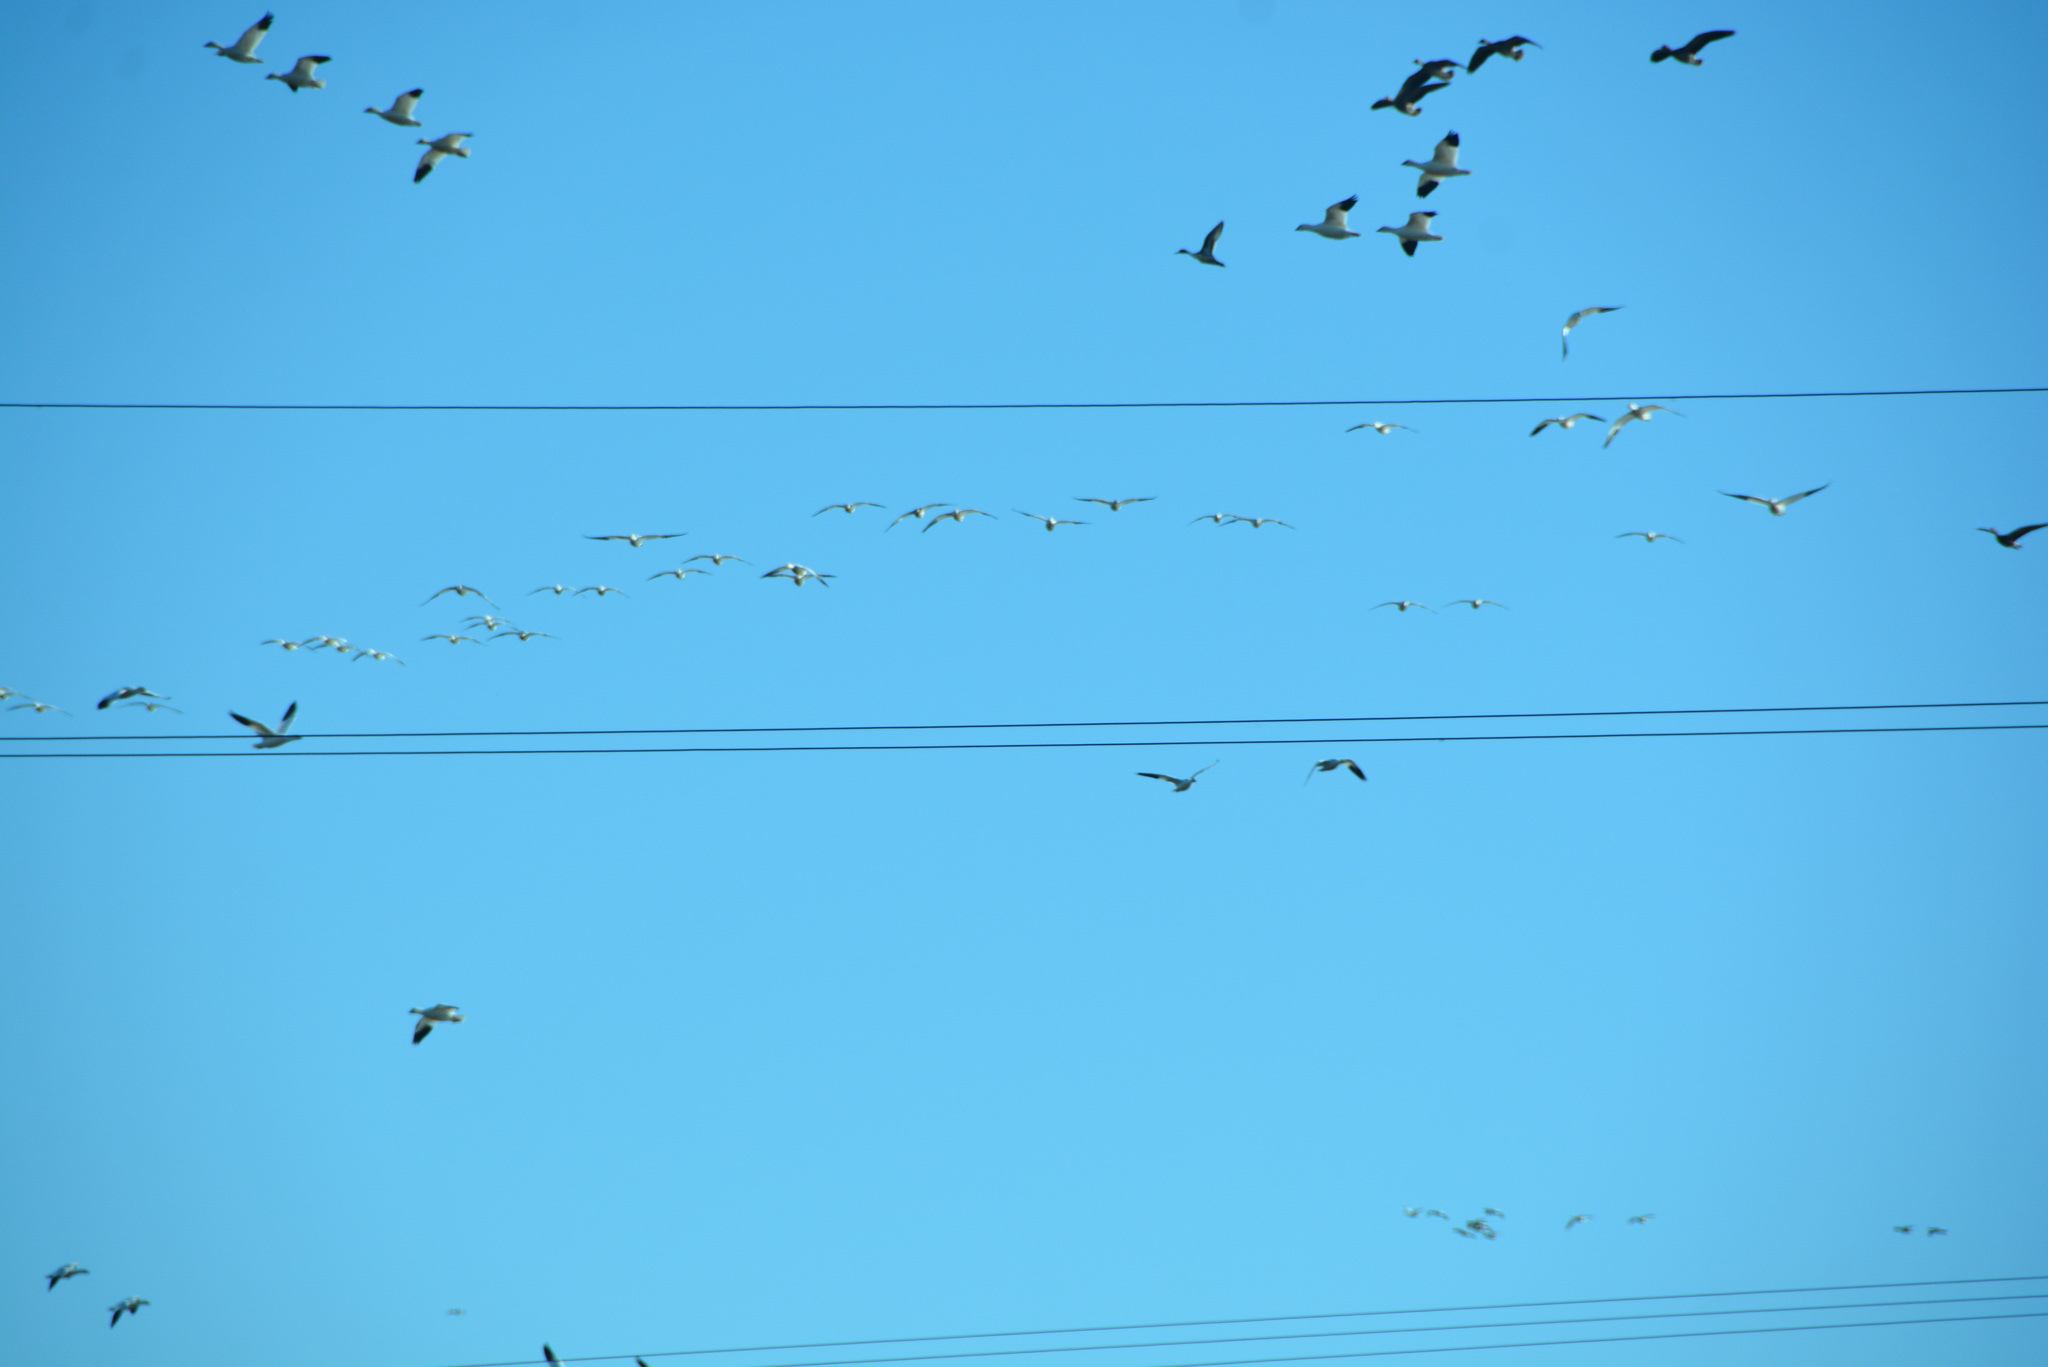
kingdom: Animalia
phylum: Chordata
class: Aves
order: Anseriformes
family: Anatidae
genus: Anser
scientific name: Anser rossii
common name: Ross's goose
